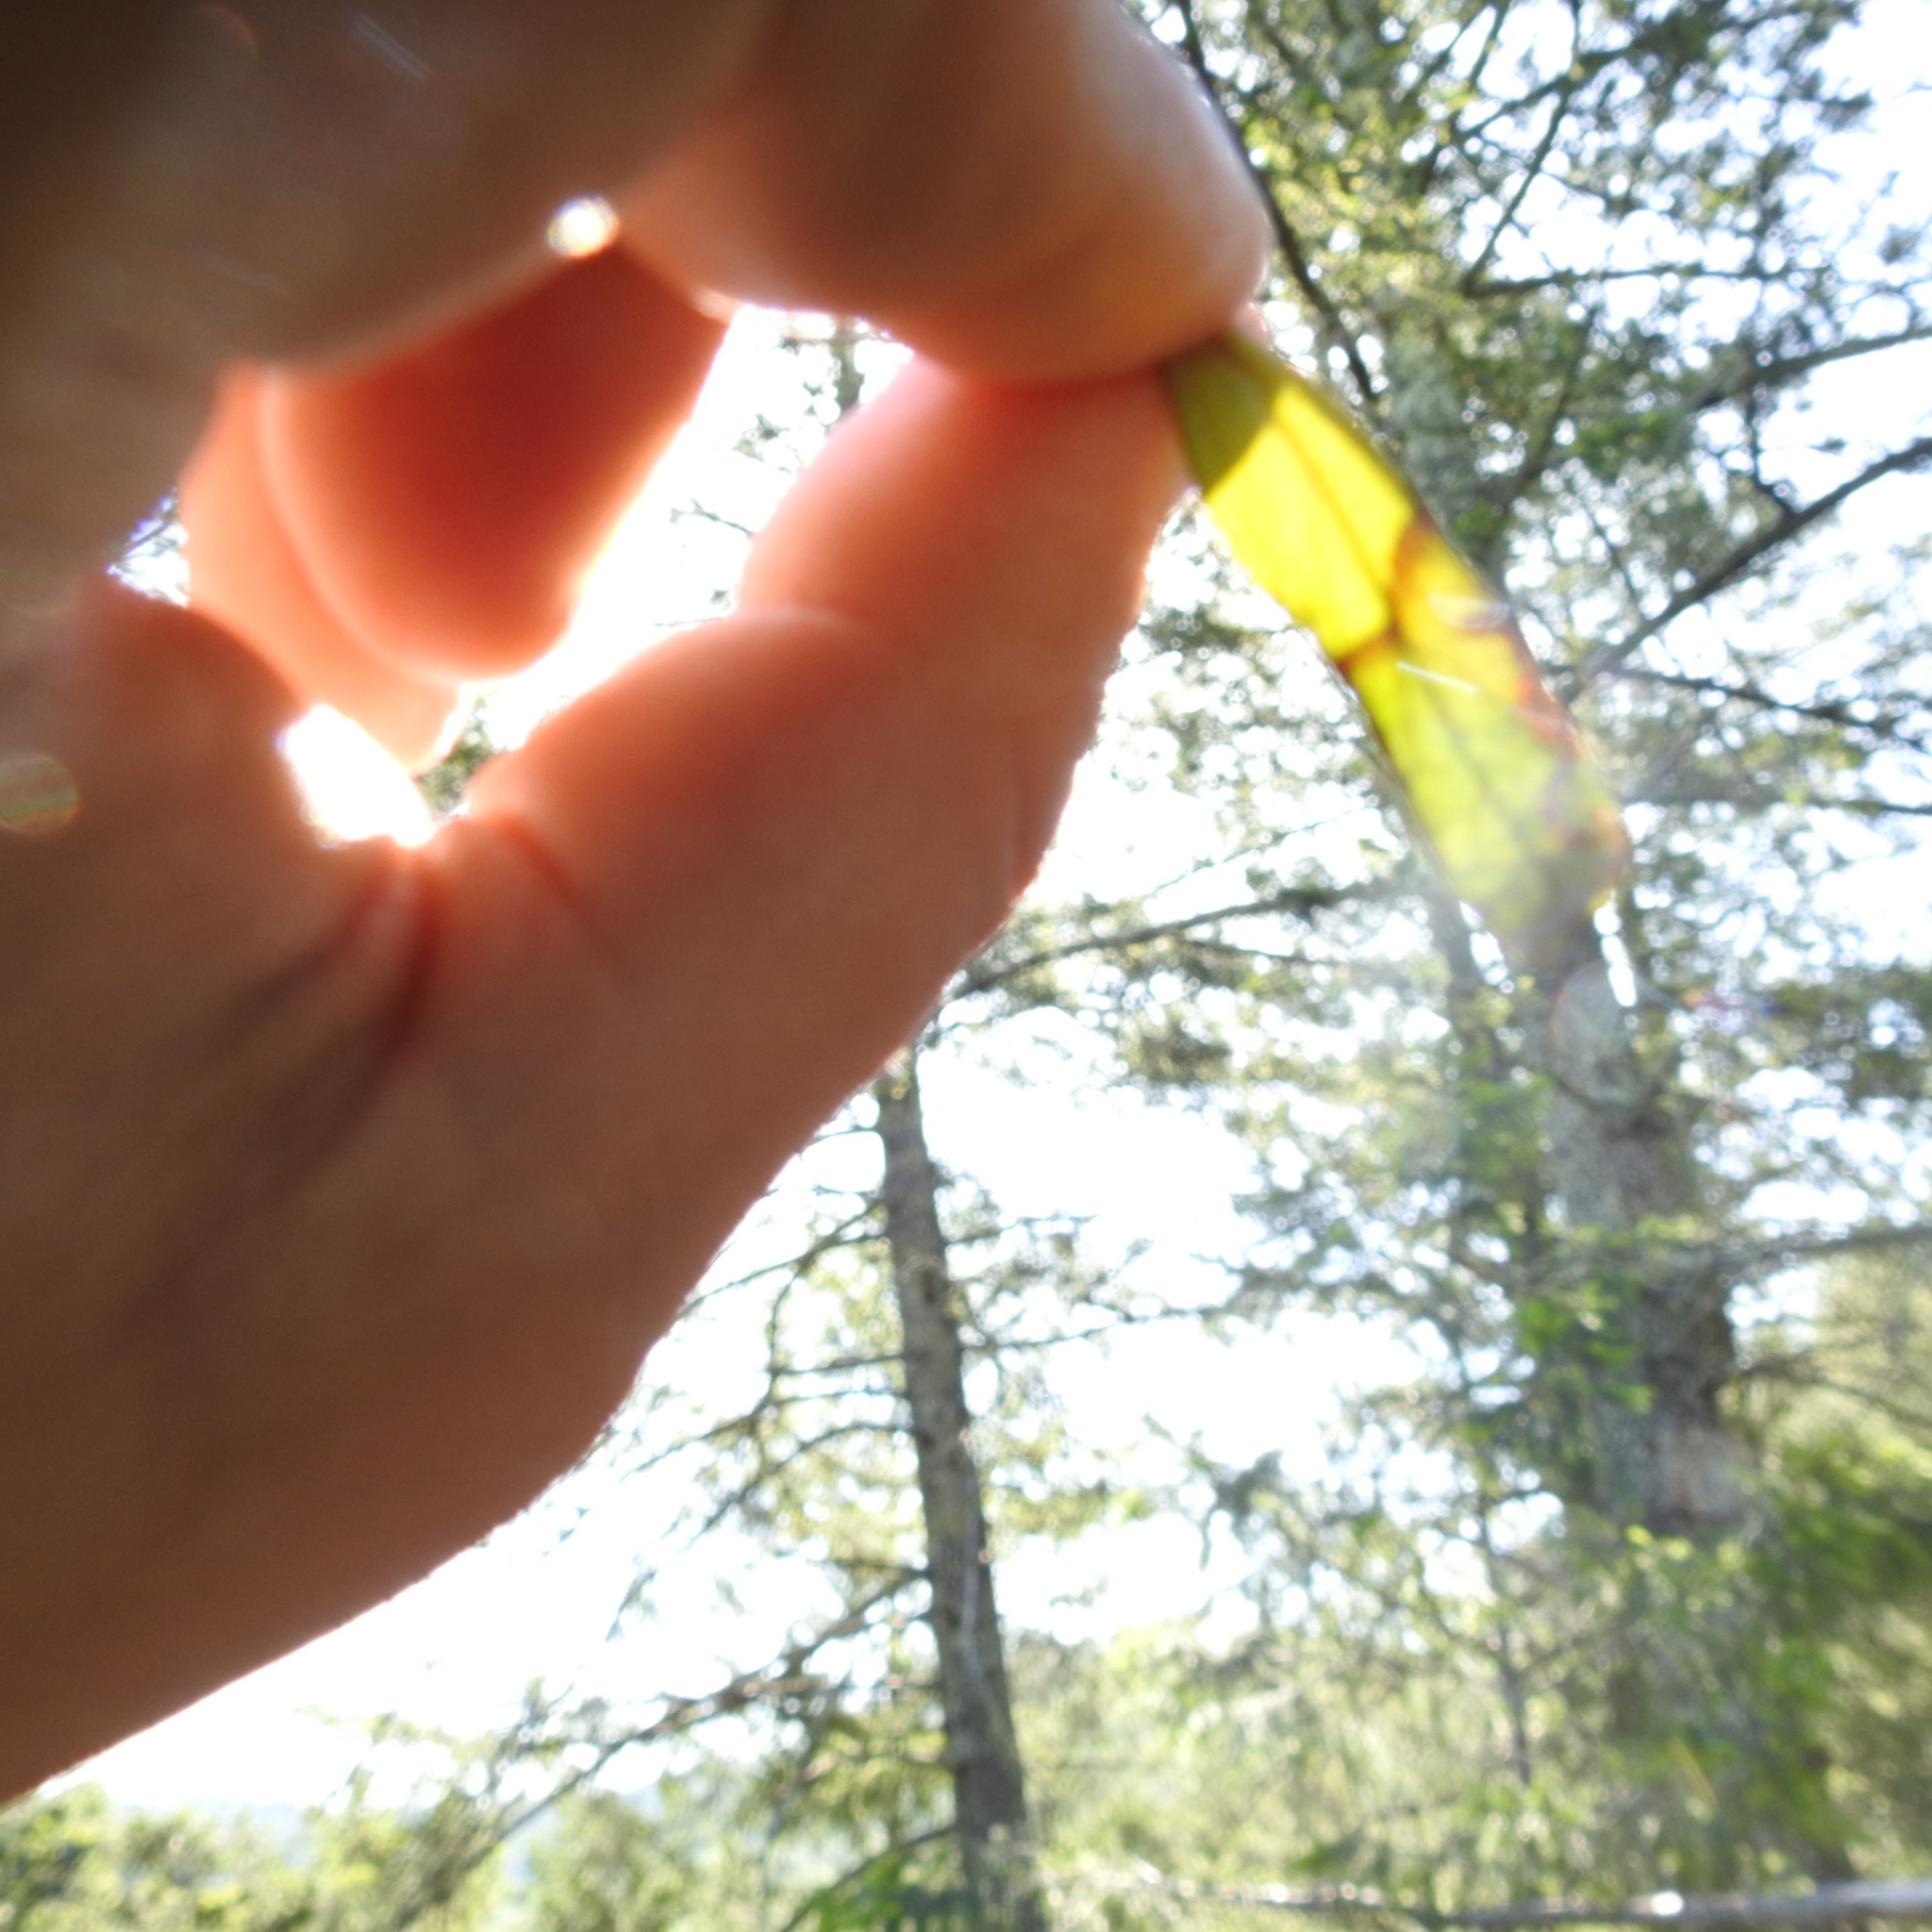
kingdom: Plantae
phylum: Tracheophyta
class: Magnoliopsida
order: Lamiales
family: Phrymaceae
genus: Diplacus
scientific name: Diplacus aurantiacus
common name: Bush monkey-flower
